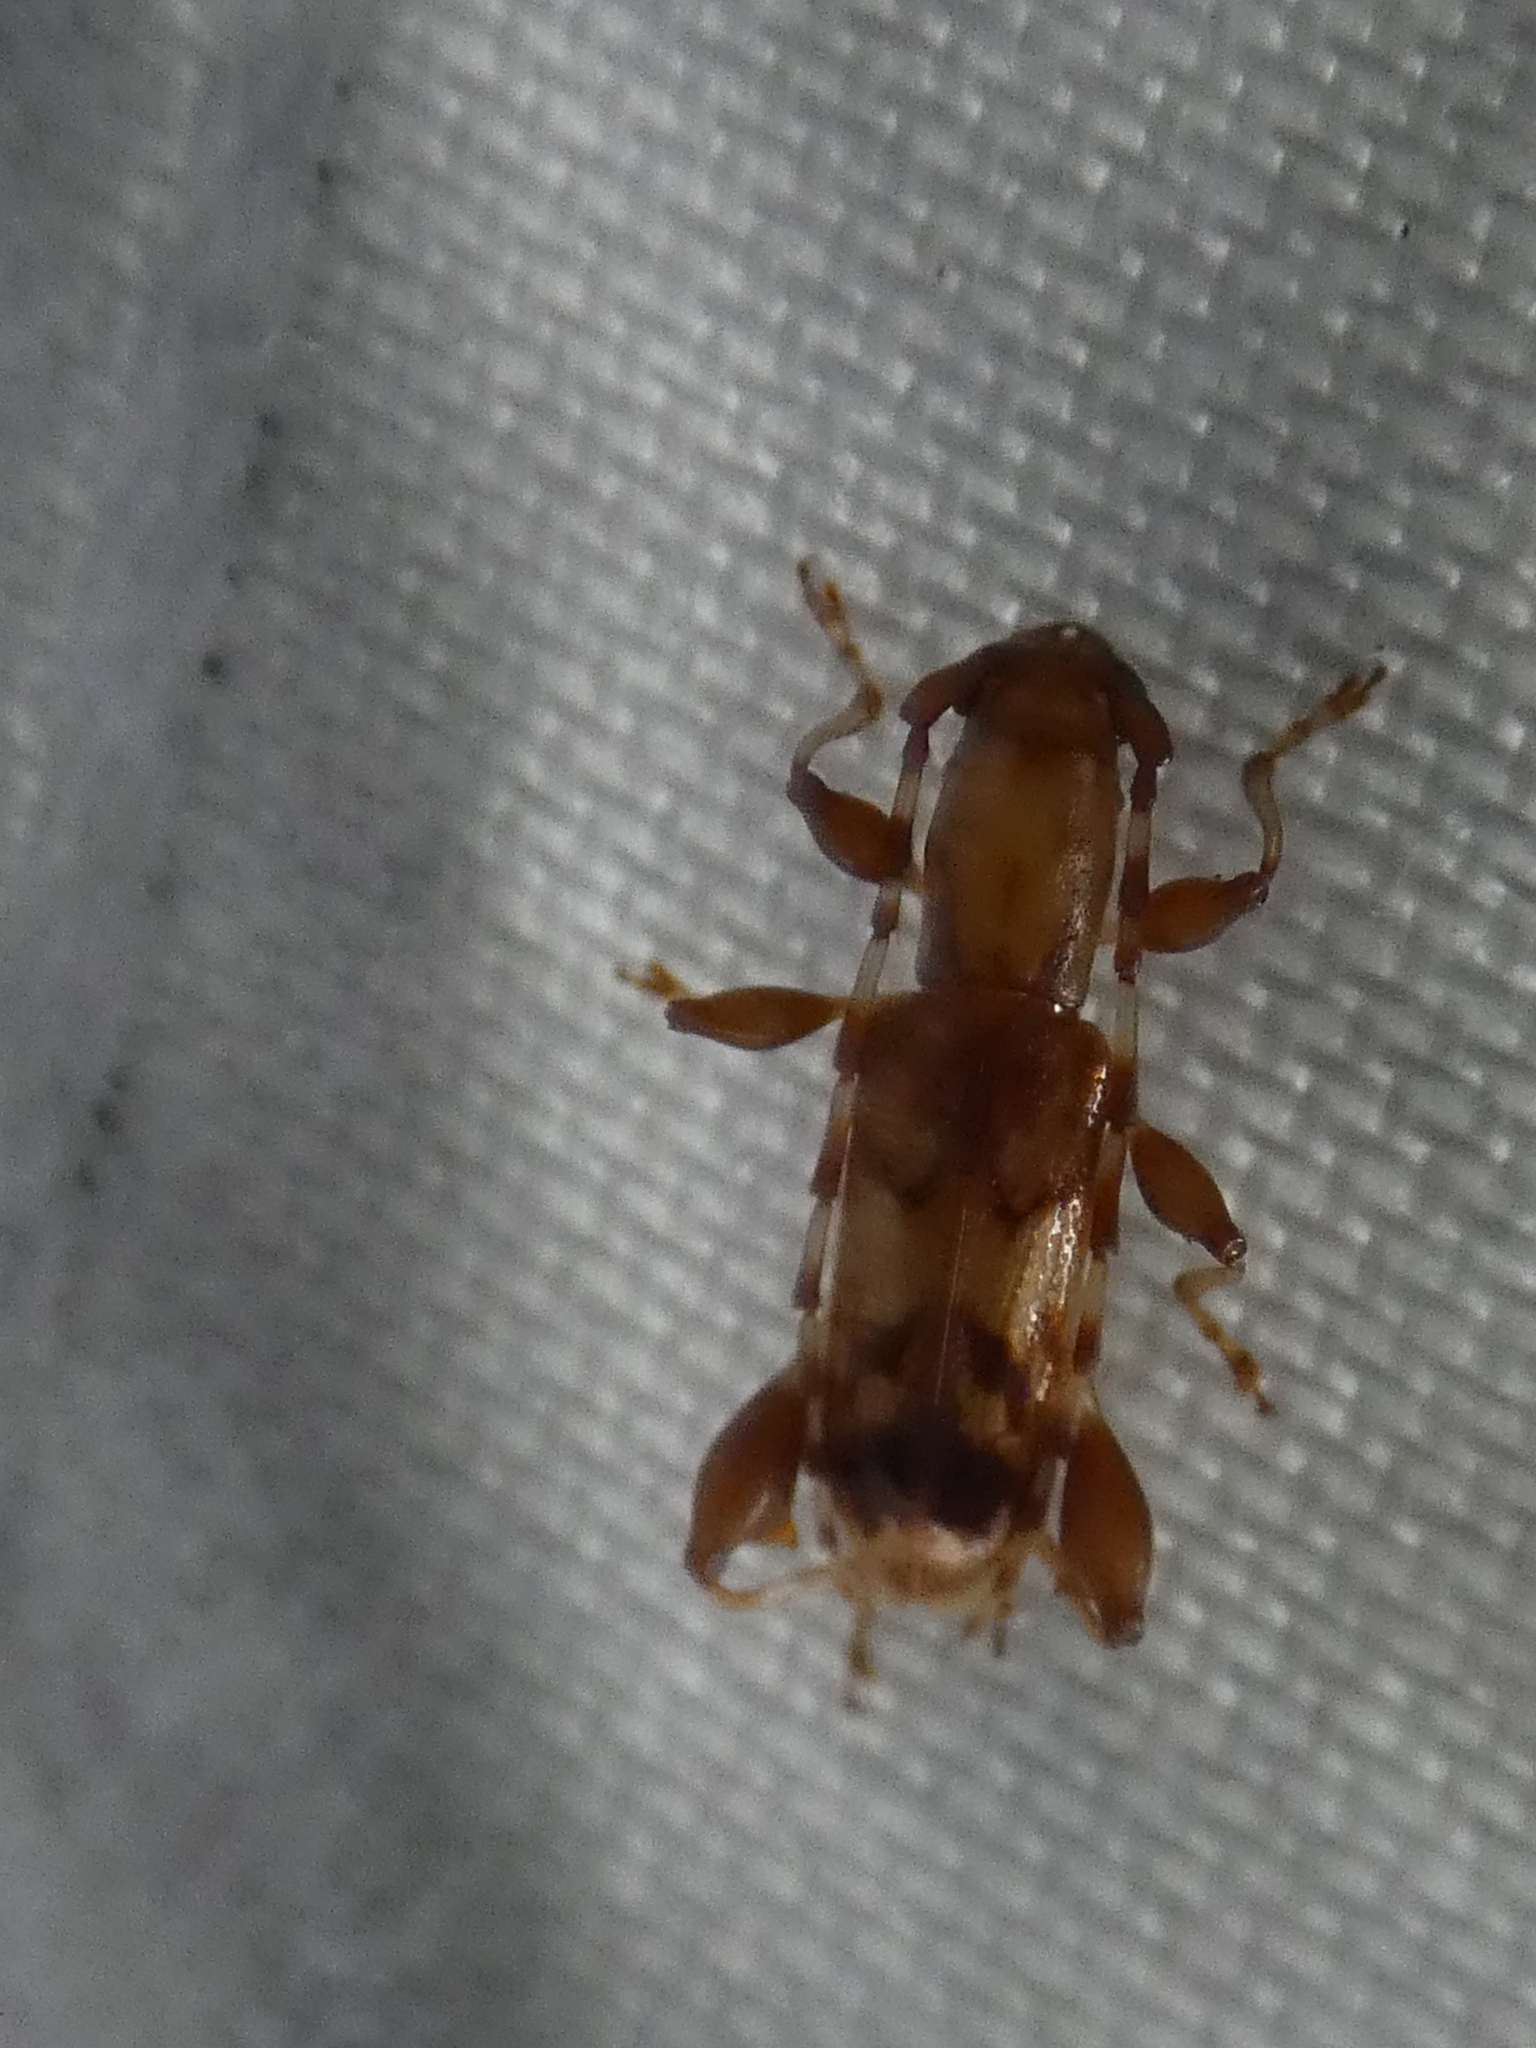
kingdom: Animalia
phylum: Arthropoda
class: Insecta
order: Coleoptera
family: Cerambycidae
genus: Plectromerus
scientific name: Plectromerus dentipes
